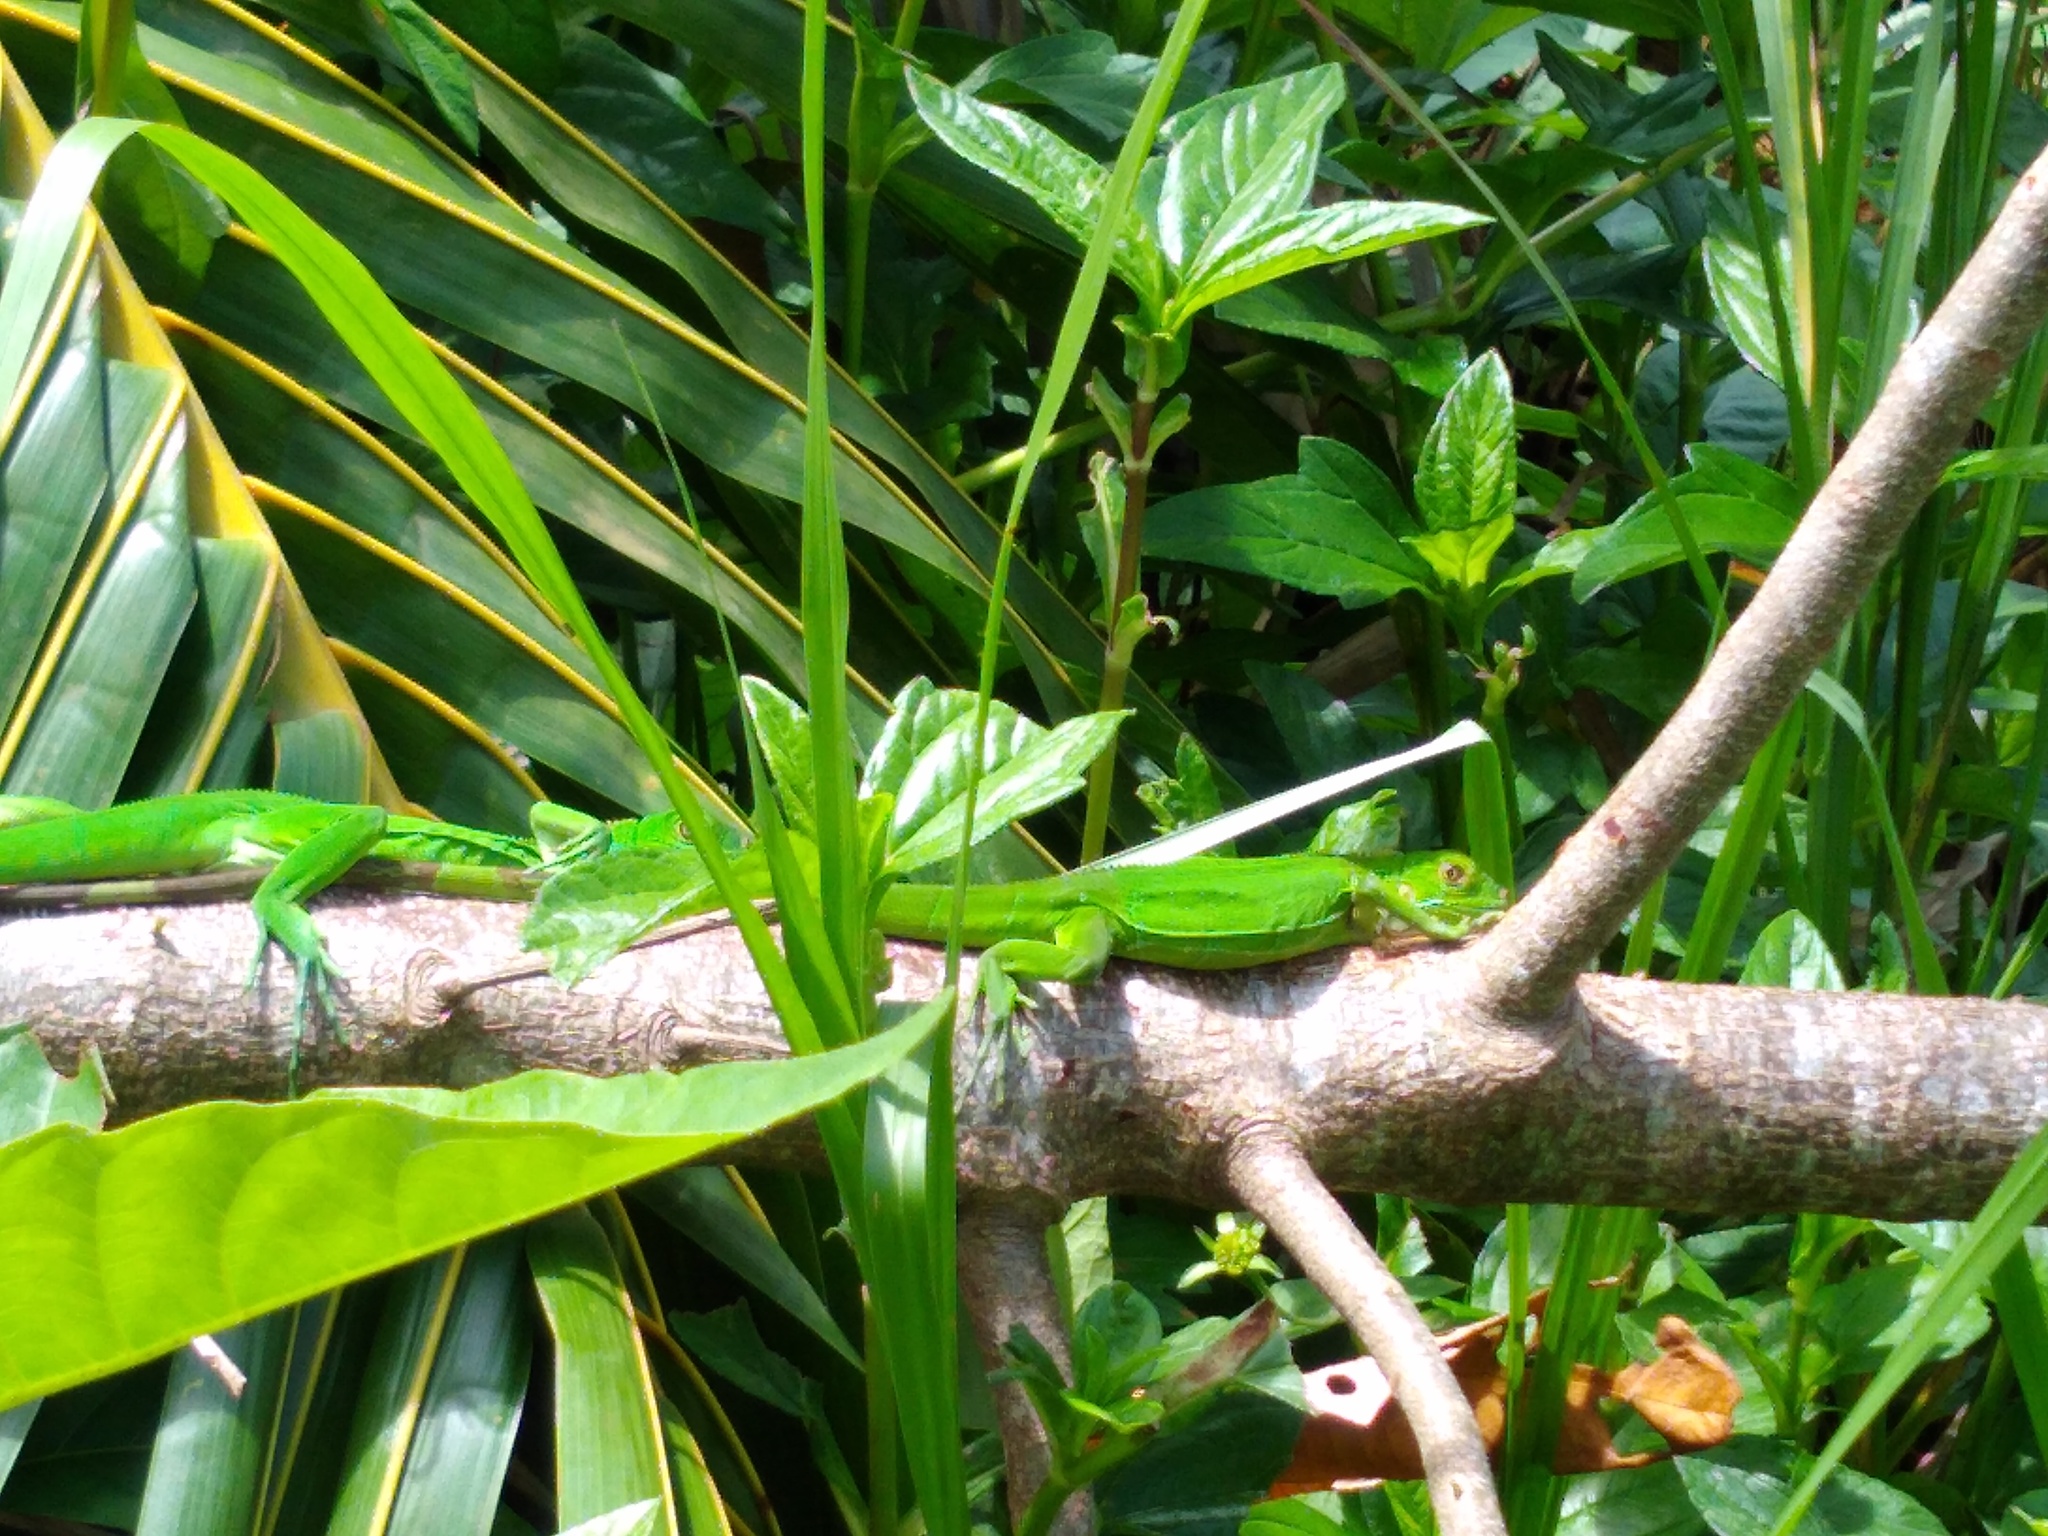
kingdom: Animalia
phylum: Chordata
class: Squamata
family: Iguanidae
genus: Iguana
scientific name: Iguana iguana
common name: Green iguana
